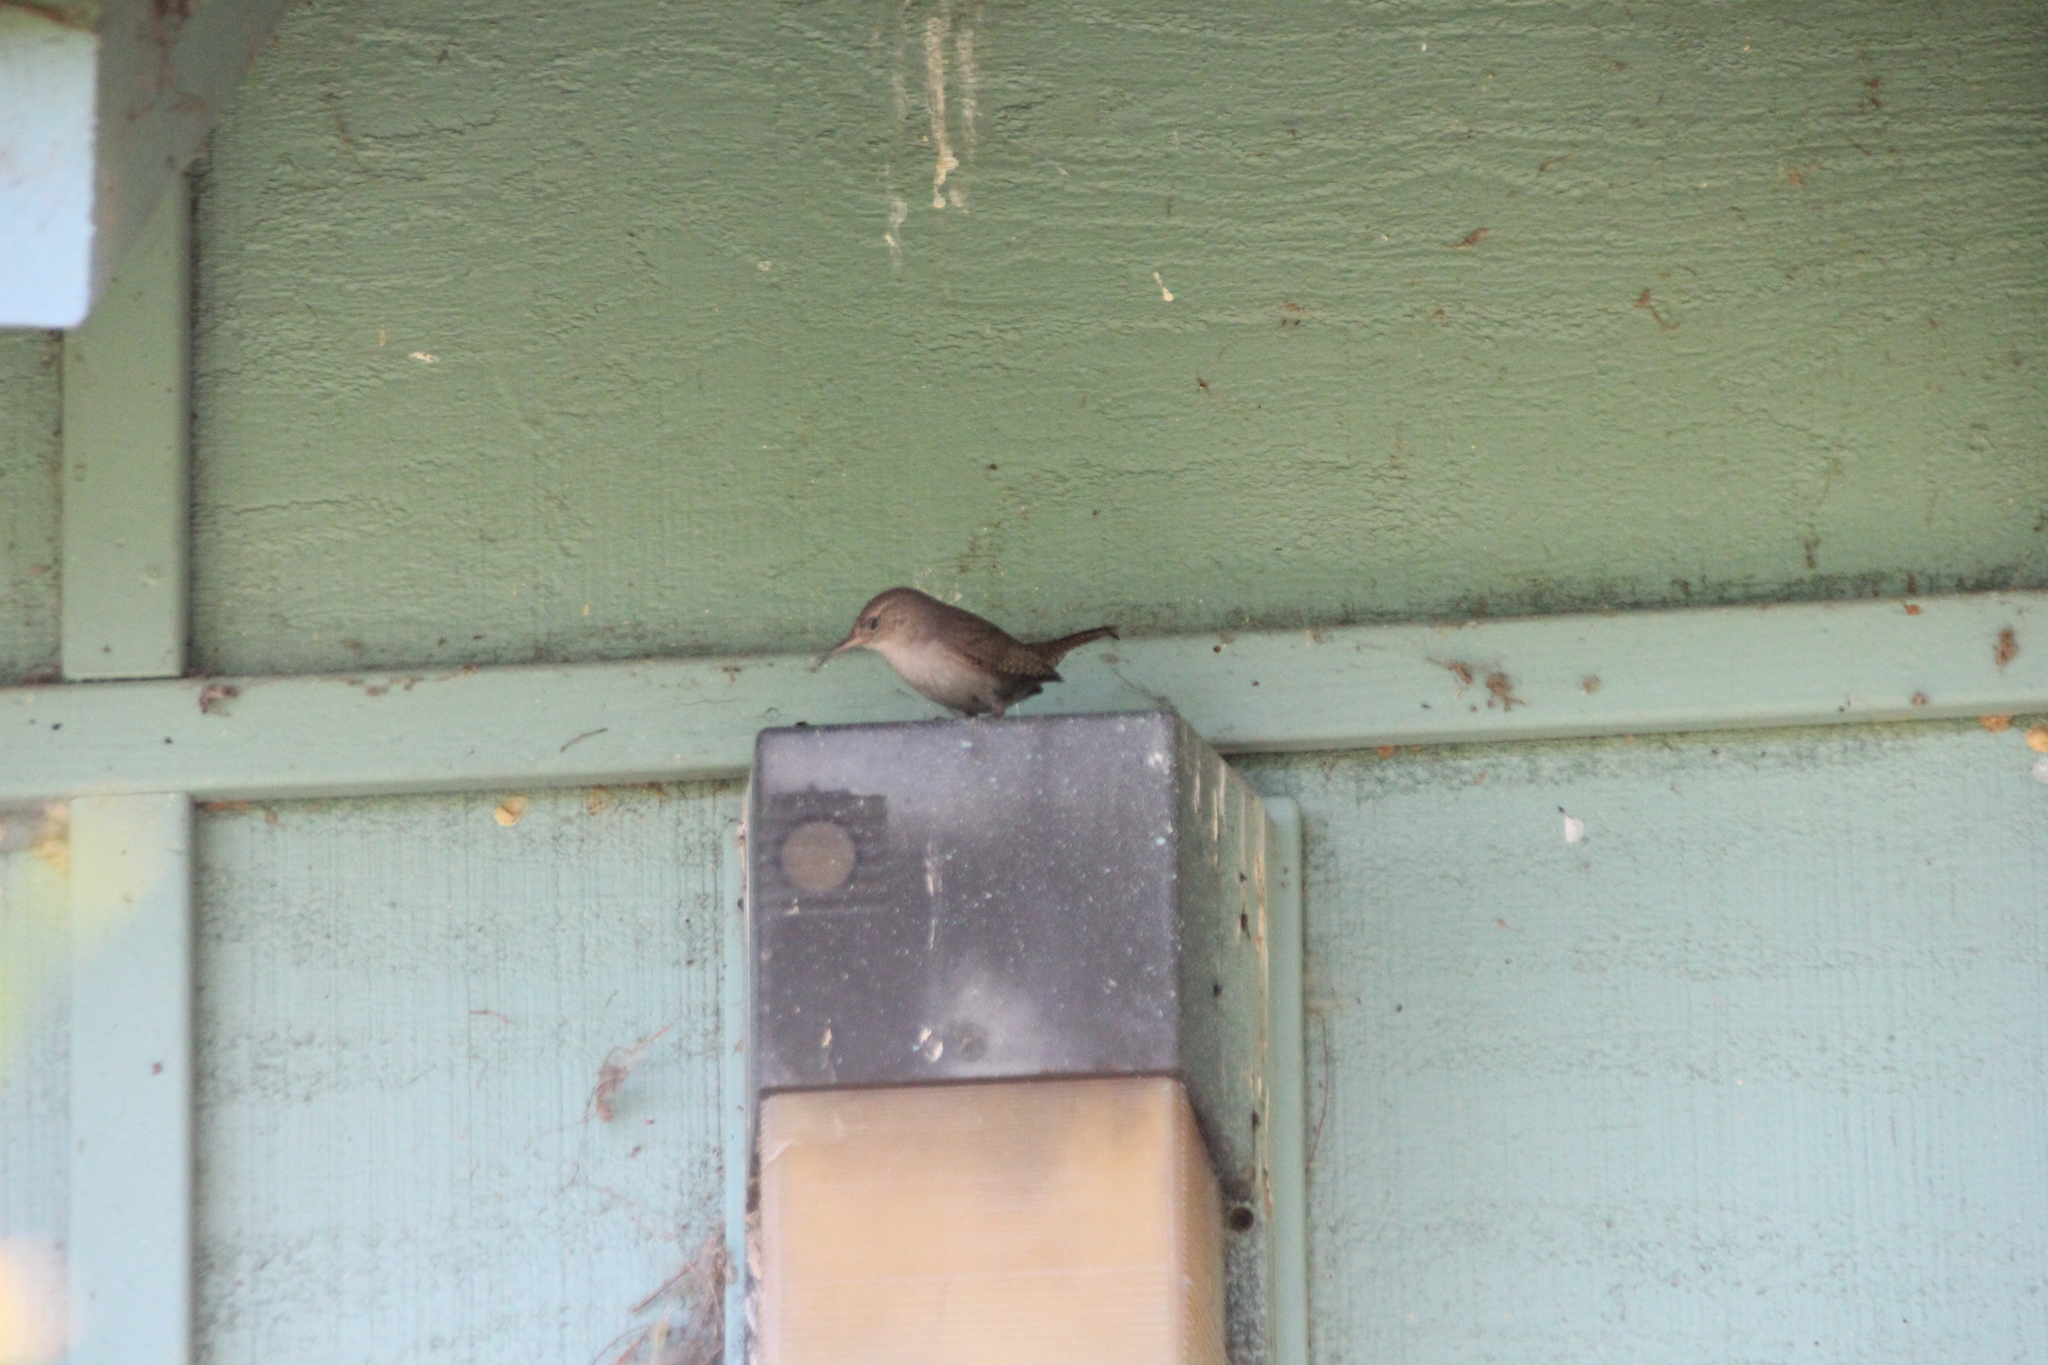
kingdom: Animalia
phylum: Chordata
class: Aves
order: Passeriformes
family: Troglodytidae
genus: Troglodytes
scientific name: Troglodytes aedon
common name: House wren
